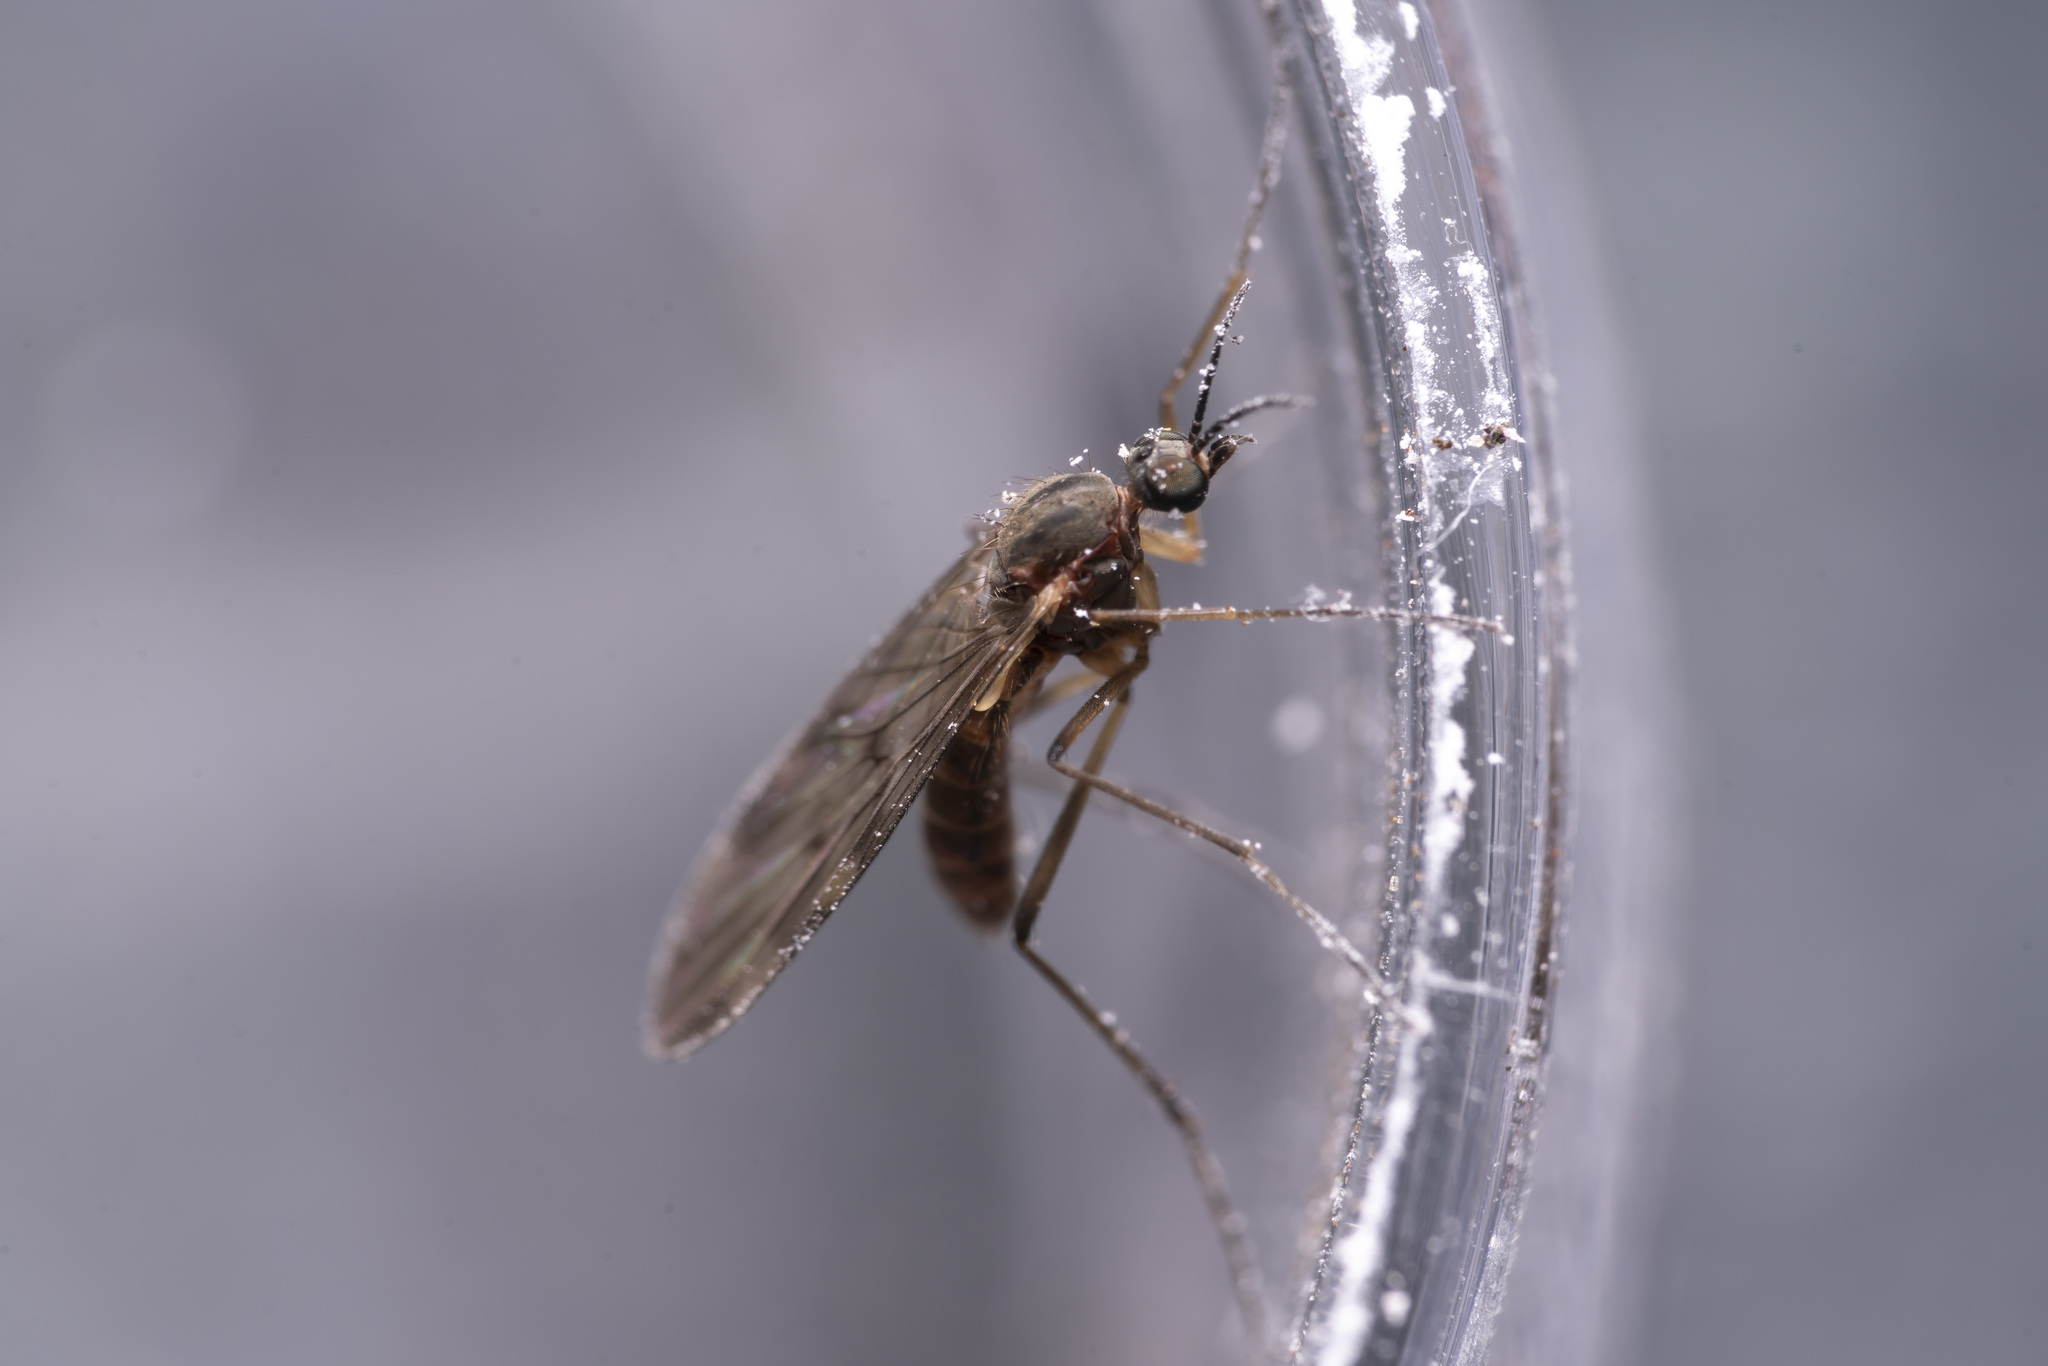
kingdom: Animalia
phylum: Arthropoda
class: Insecta
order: Diptera
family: Anisopodidae
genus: Sylvicola
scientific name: Sylvicola
